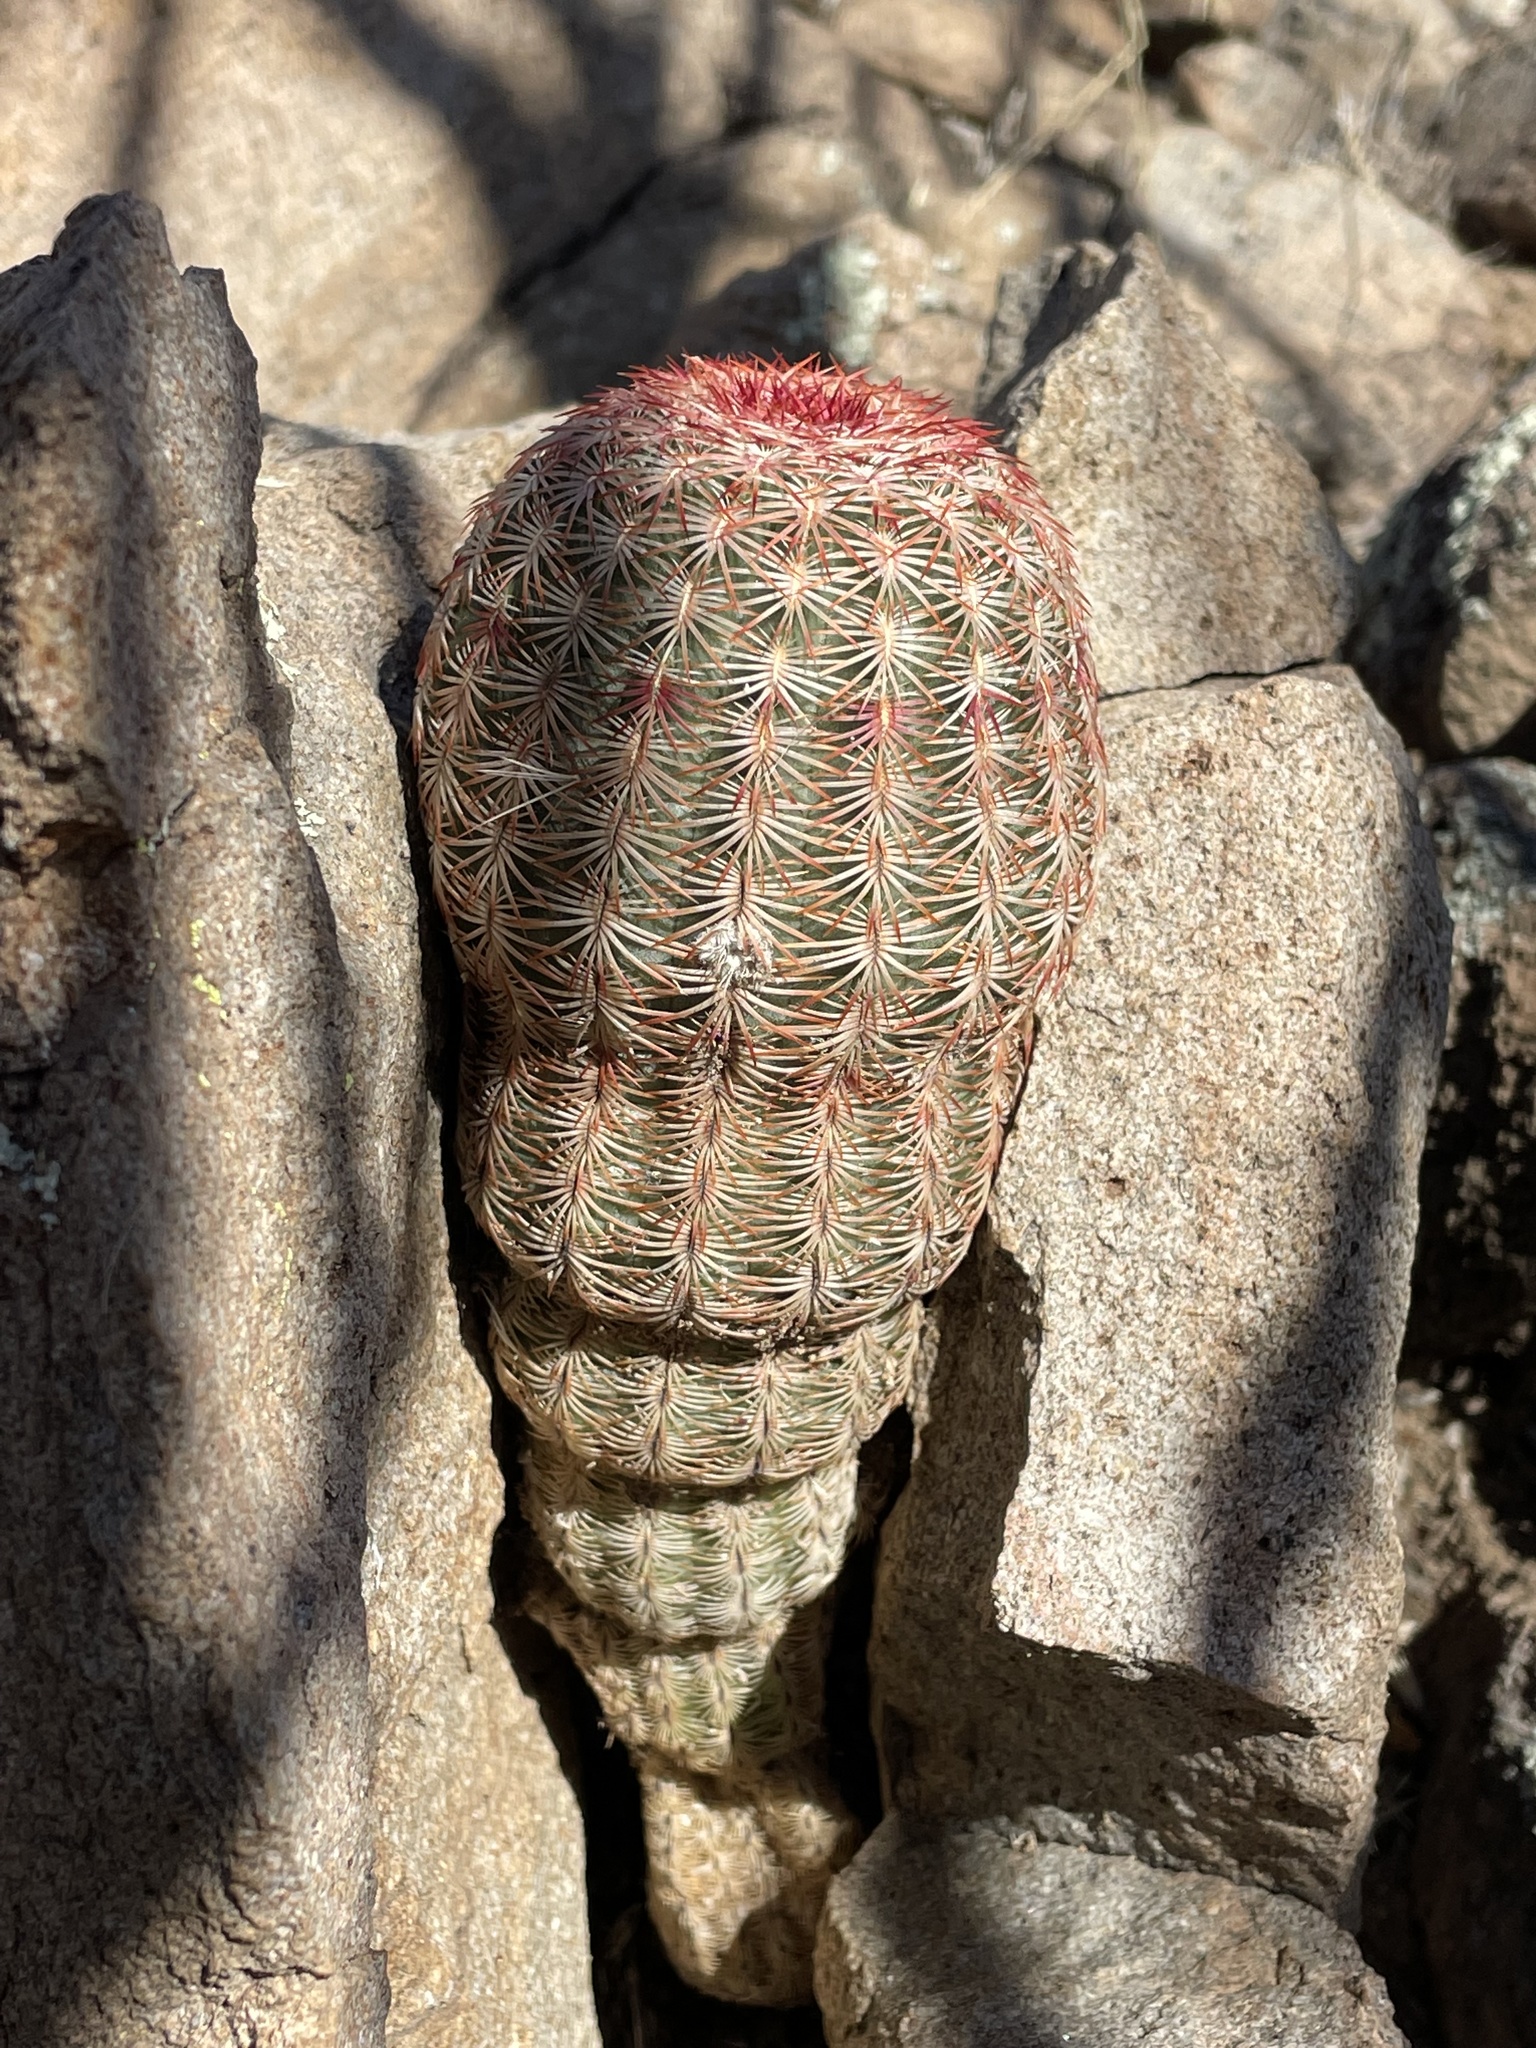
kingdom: Plantae
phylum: Tracheophyta
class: Magnoliopsida
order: Caryophyllales
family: Cactaceae
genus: Echinocereus
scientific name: Echinocereus rigidissimus
